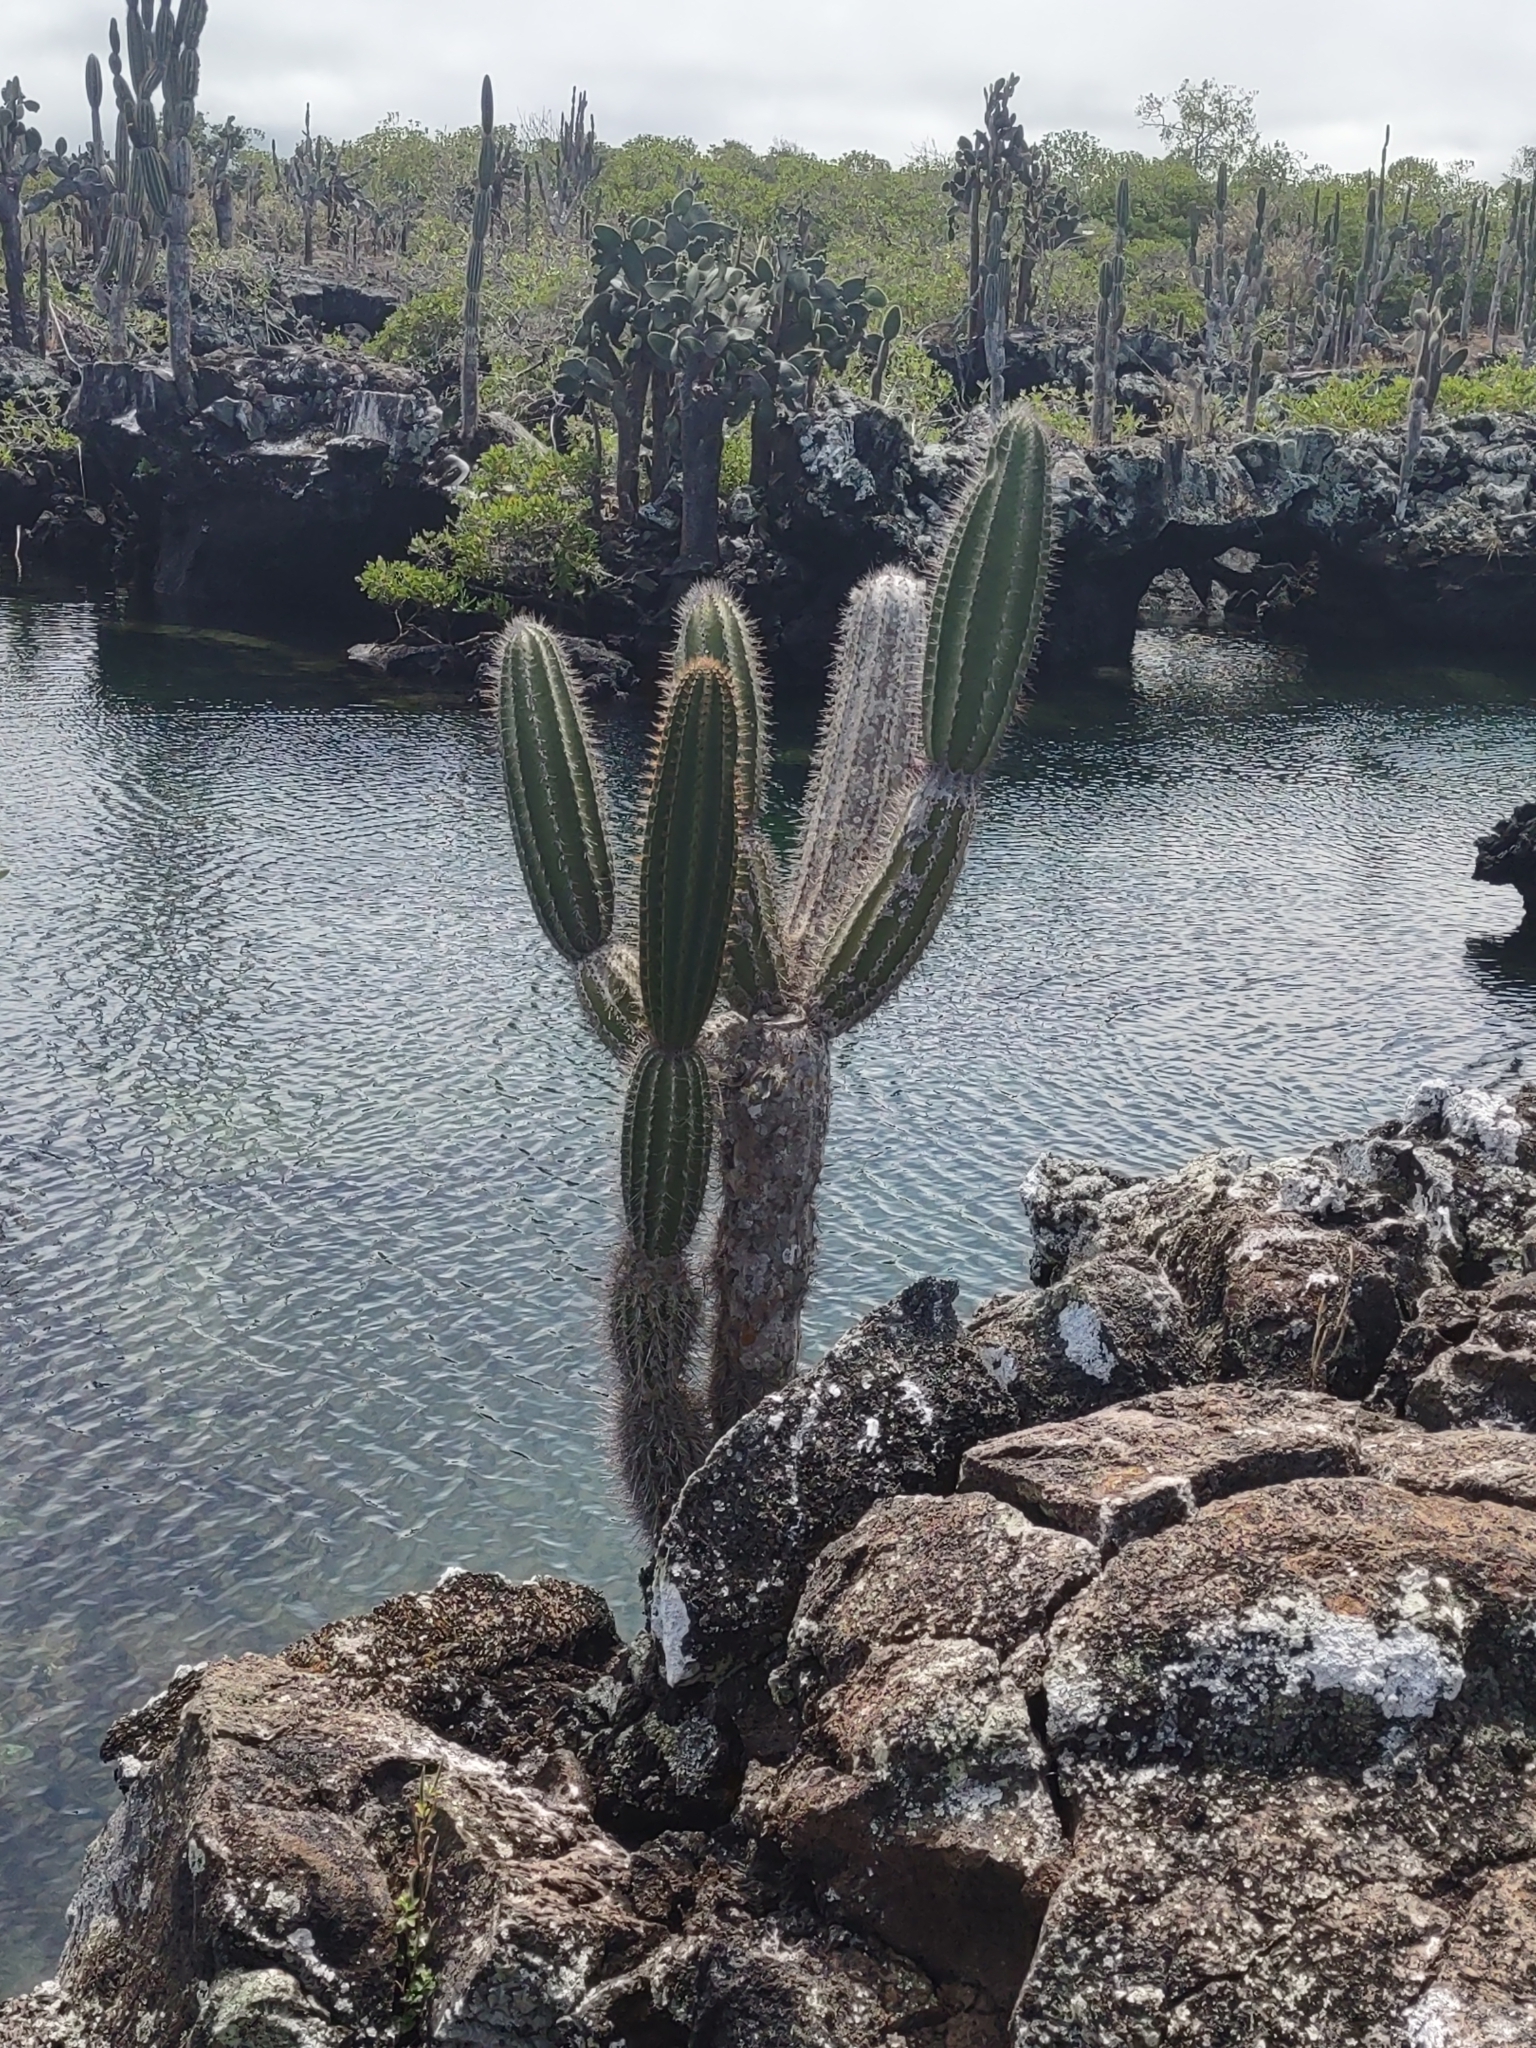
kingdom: Plantae
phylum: Tracheophyta
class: Magnoliopsida
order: Caryophyllales
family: Cactaceae
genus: Jasminocereus
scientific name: Jasminocereus thouarsii
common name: Candelabra cactus
